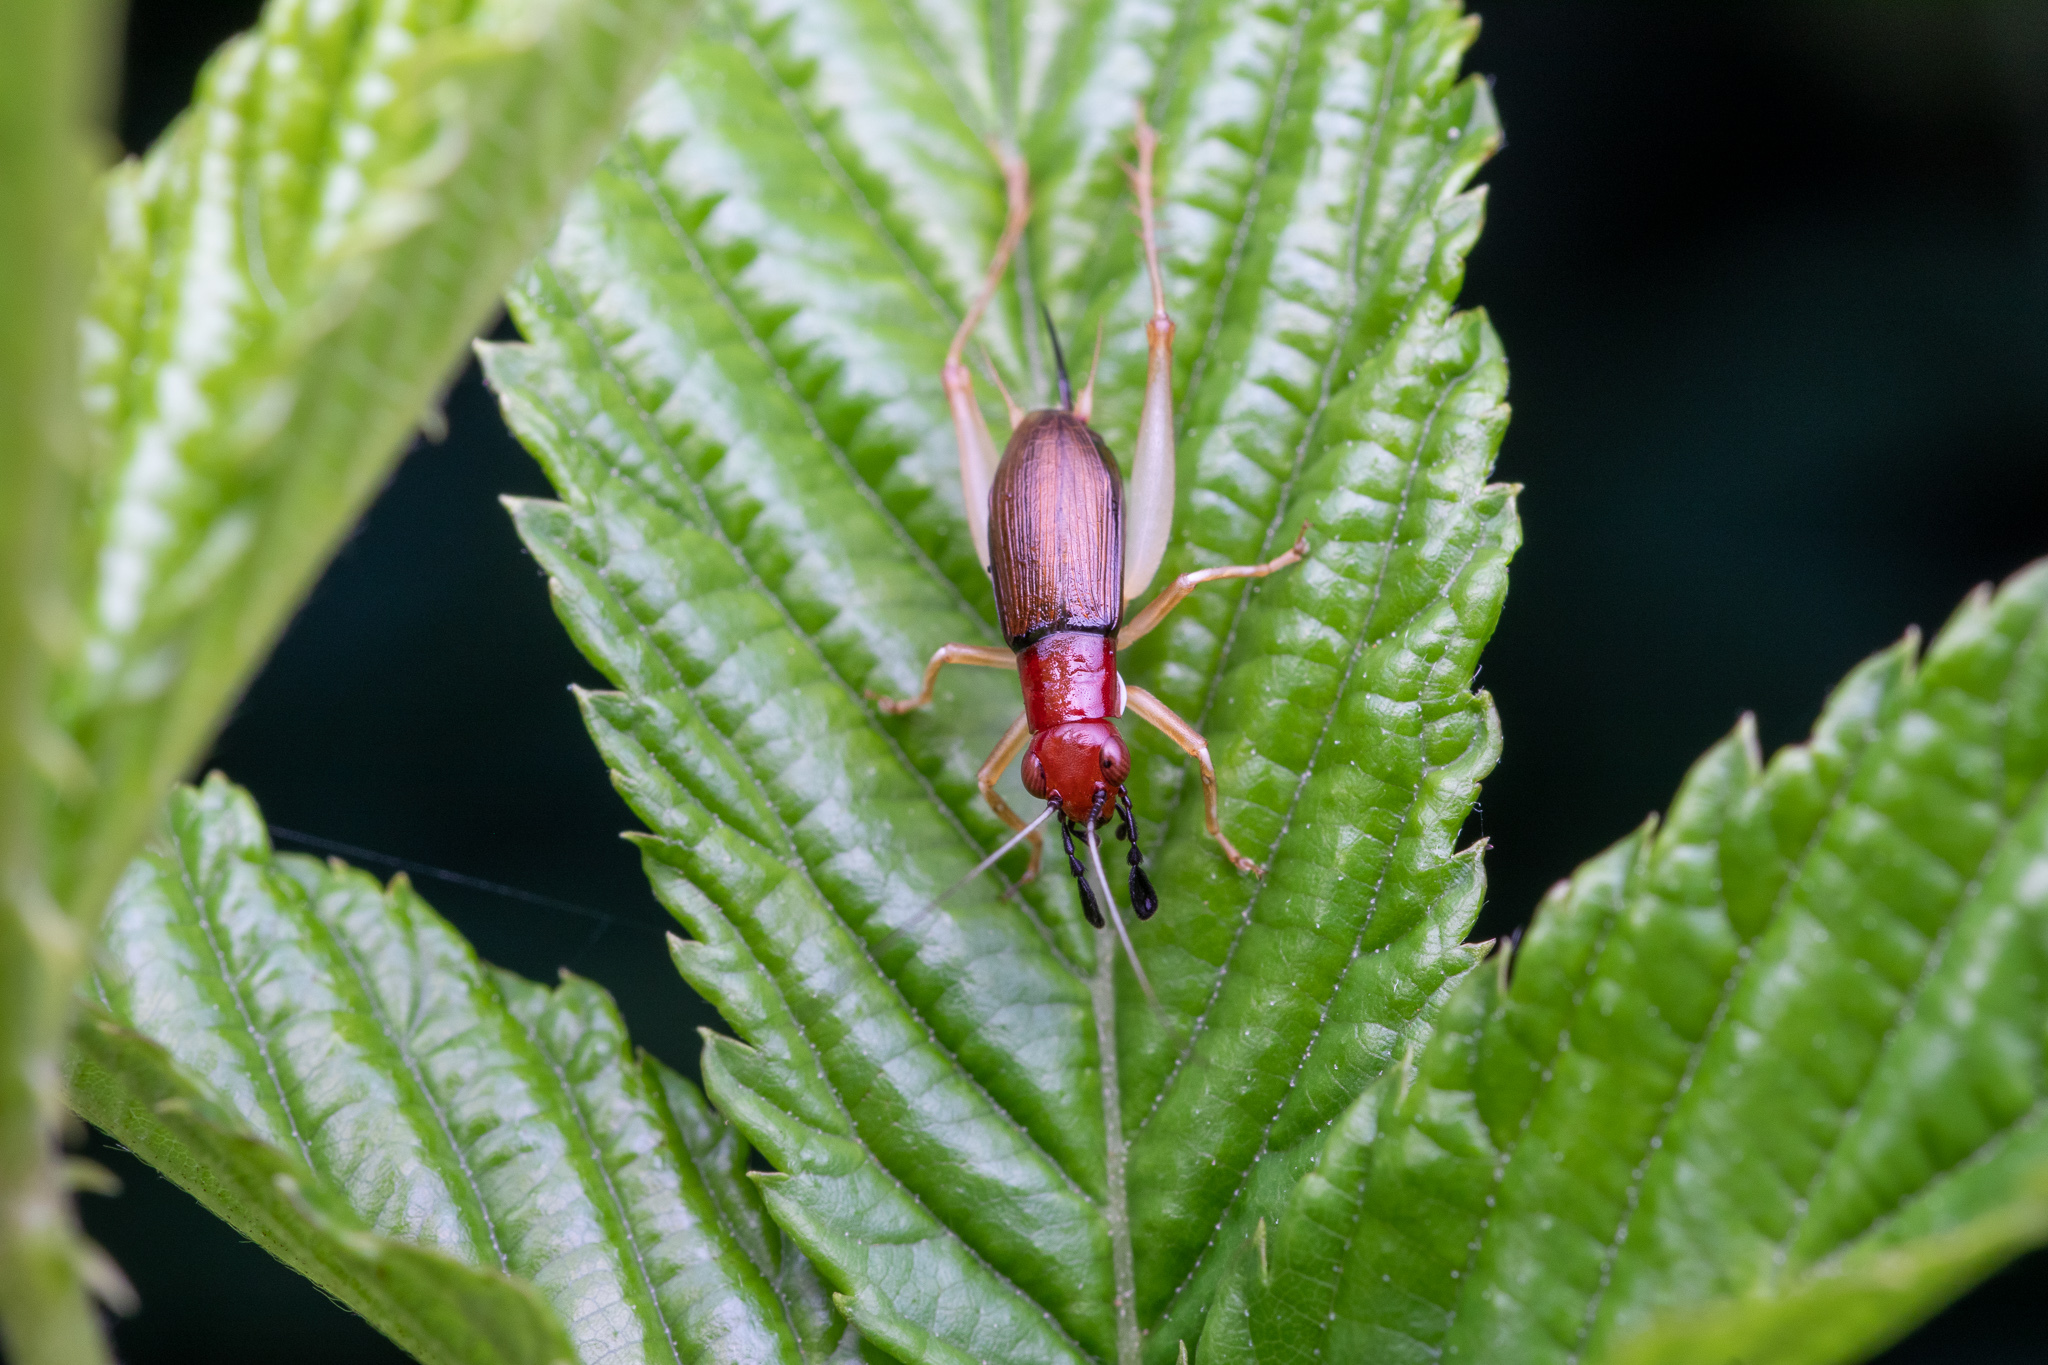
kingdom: Animalia
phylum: Arthropoda
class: Insecta
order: Orthoptera
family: Trigonidiidae
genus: Phyllopalpus
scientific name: Phyllopalpus pulchellus
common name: Handsome trig
